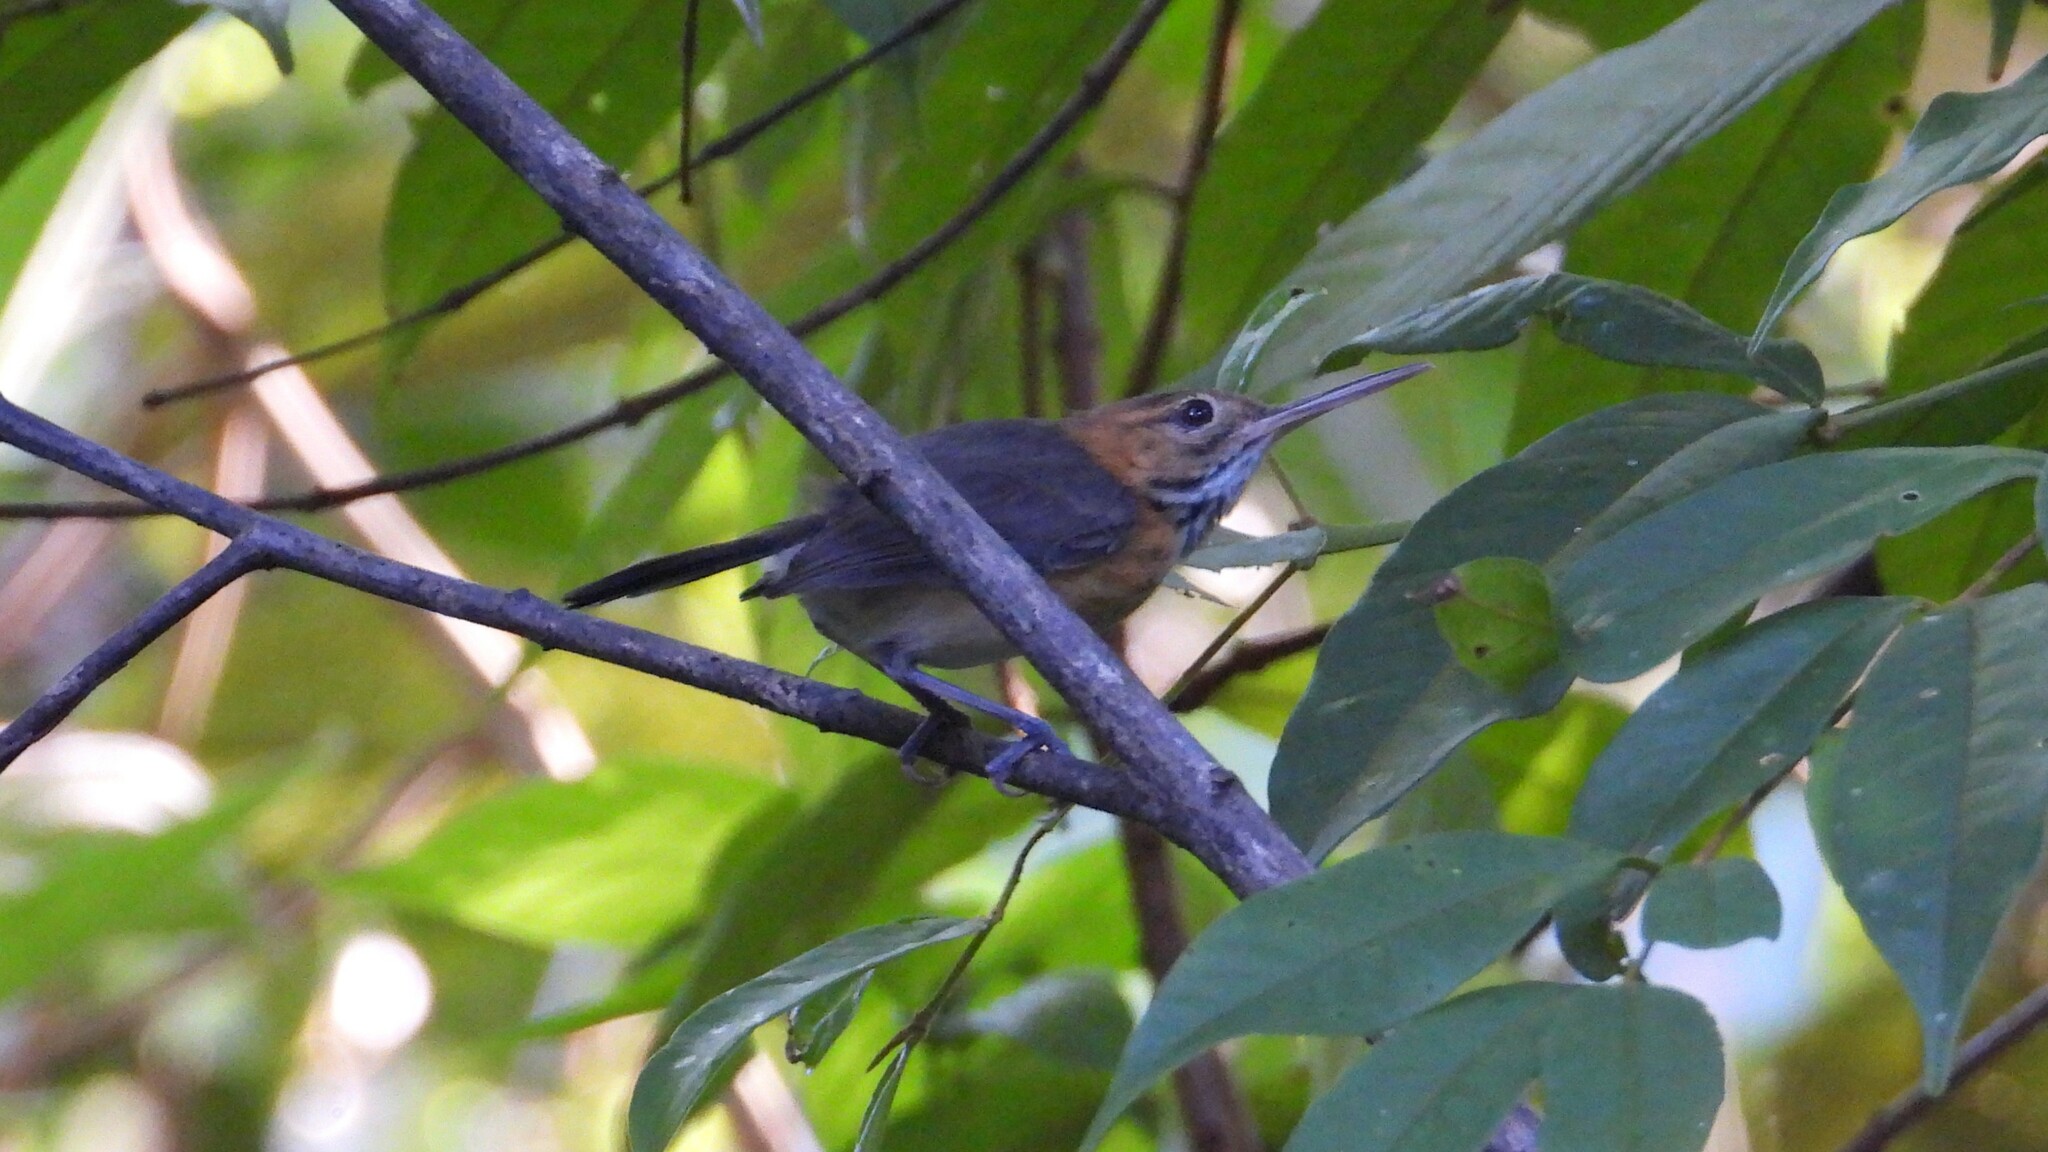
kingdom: Animalia
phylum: Chordata
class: Aves
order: Passeriformes
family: Polioptilidae
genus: Ramphocaenus
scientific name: Ramphocaenus melanurus
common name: Long-billed gnatwren
